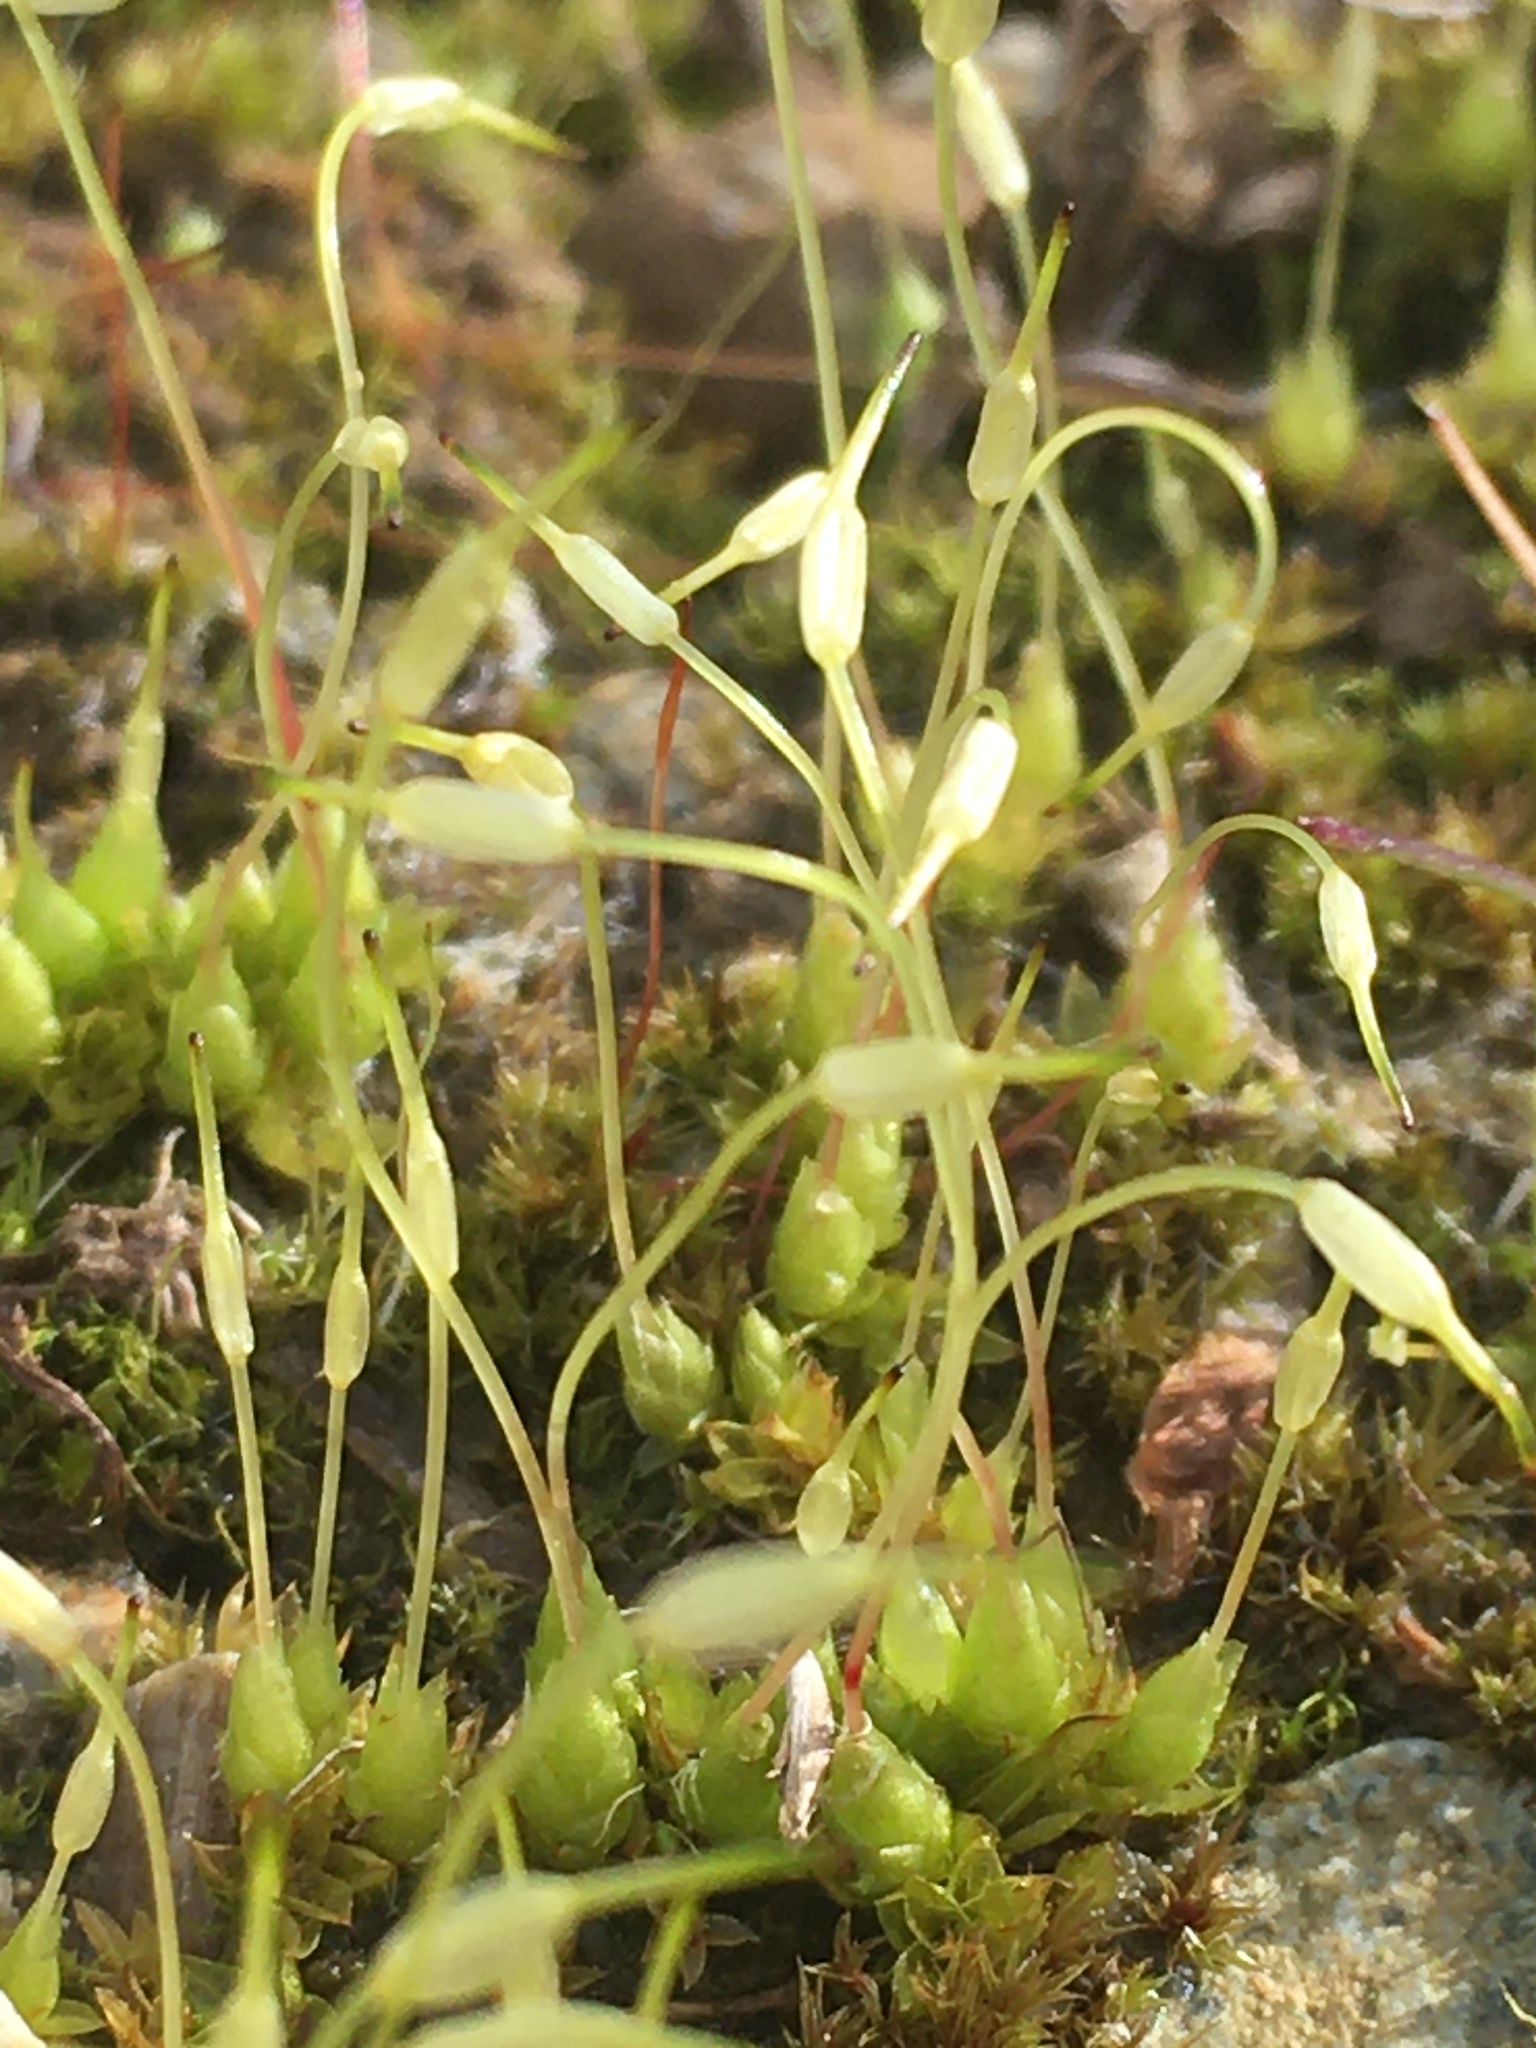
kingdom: Plantae
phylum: Bryophyta
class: Bryopsida
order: Funariales
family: Funariaceae
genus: Funaria
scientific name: Funaria hygrometrica
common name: Common cord moss
